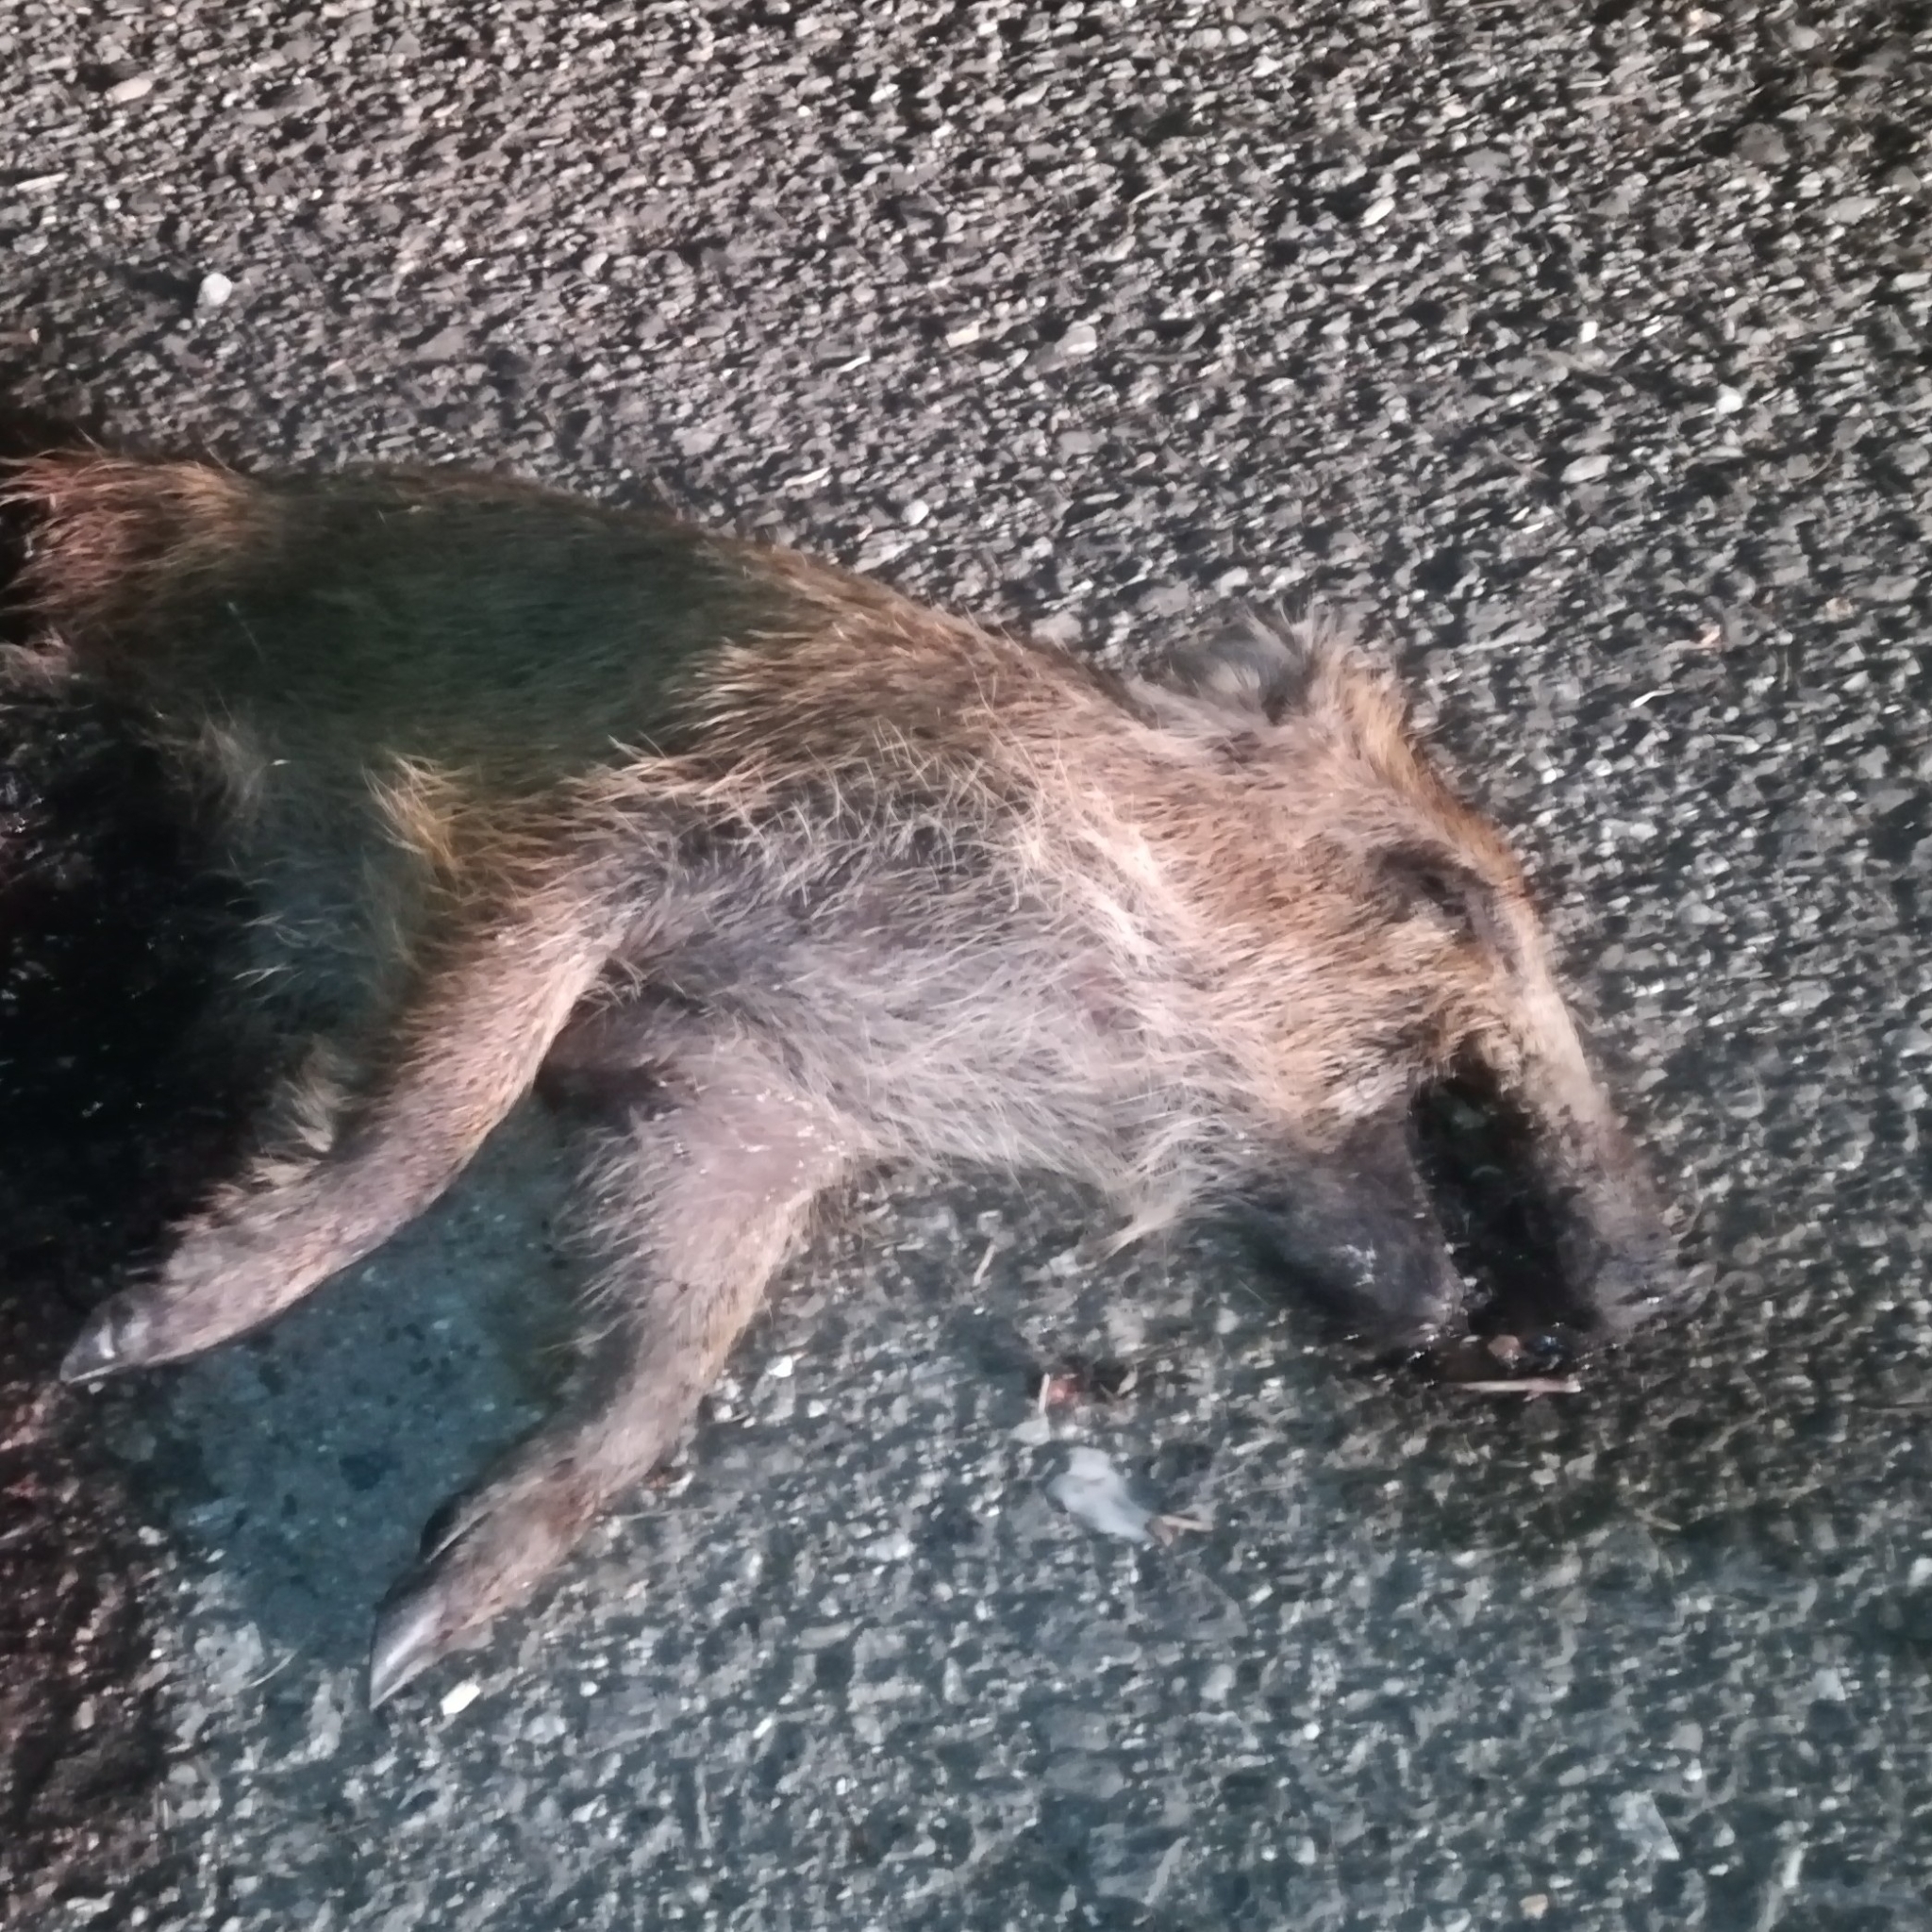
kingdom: Animalia
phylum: Chordata
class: Mammalia
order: Artiodactyla
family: Suidae
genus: Sus
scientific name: Sus scrofa
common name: Wild boar
